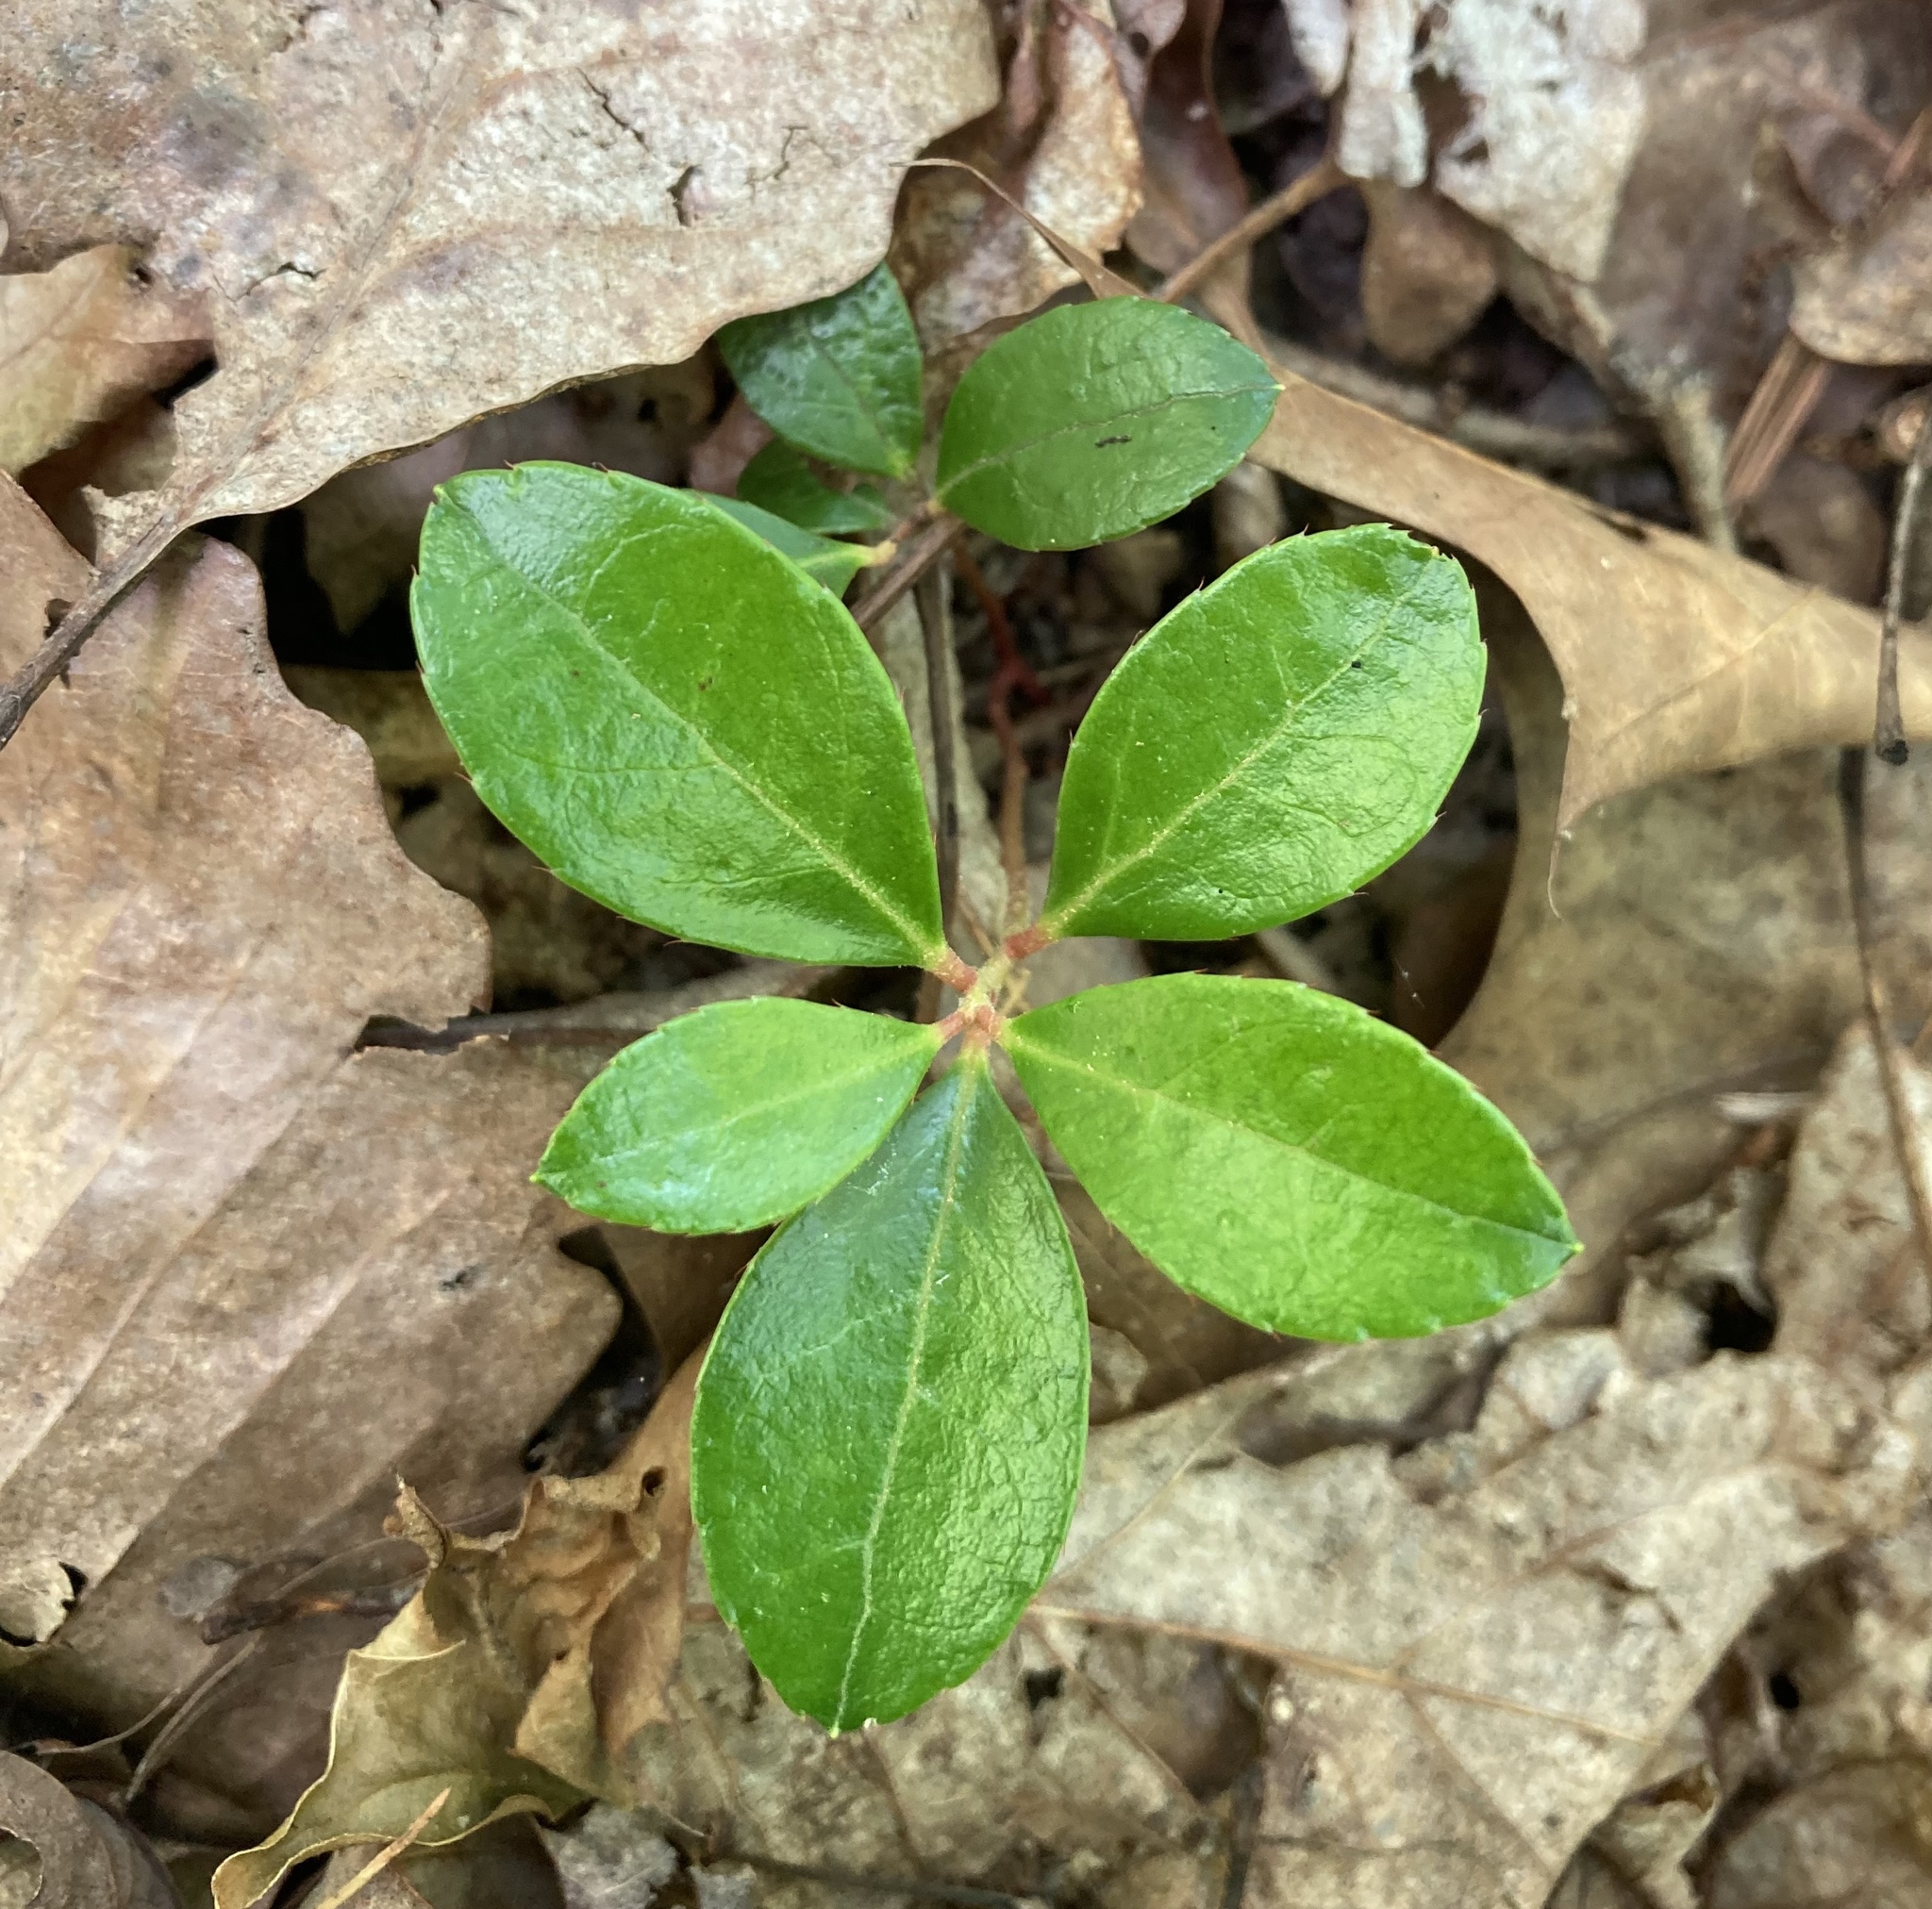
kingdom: Plantae
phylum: Tracheophyta
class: Magnoliopsida
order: Ericales
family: Ericaceae
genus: Gaultheria
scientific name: Gaultheria procumbens
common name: Checkerberry
